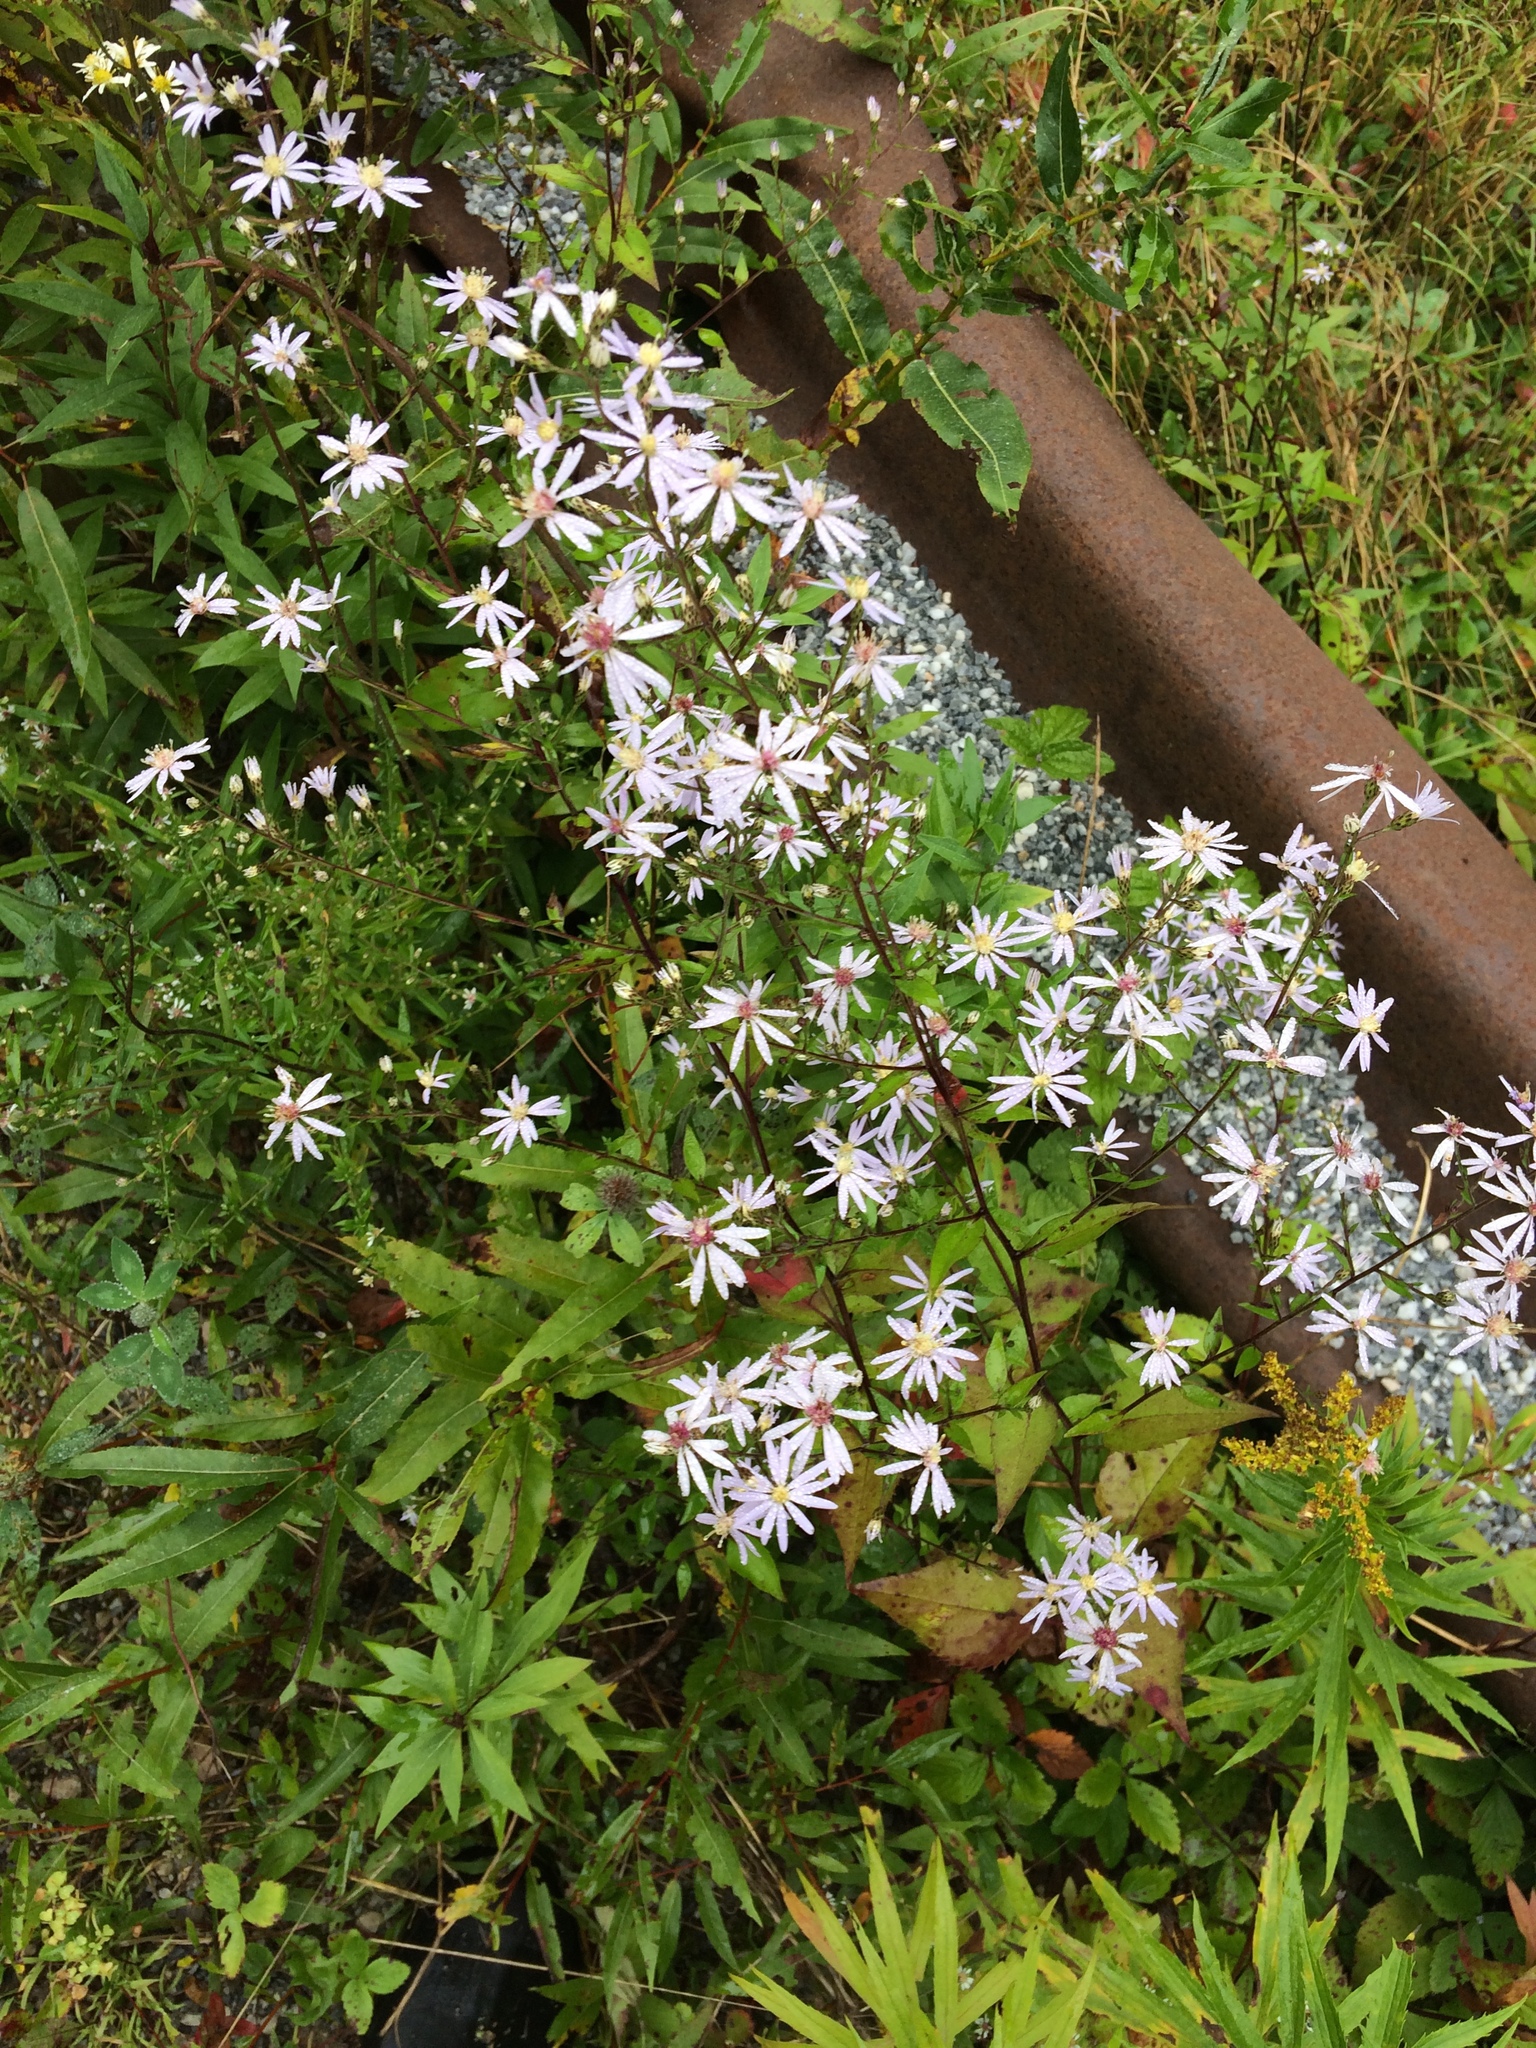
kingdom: Plantae
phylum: Tracheophyta
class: Magnoliopsida
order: Asterales
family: Asteraceae
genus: Symphyotrichum
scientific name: Symphyotrichum cordifolium
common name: Beeweed
